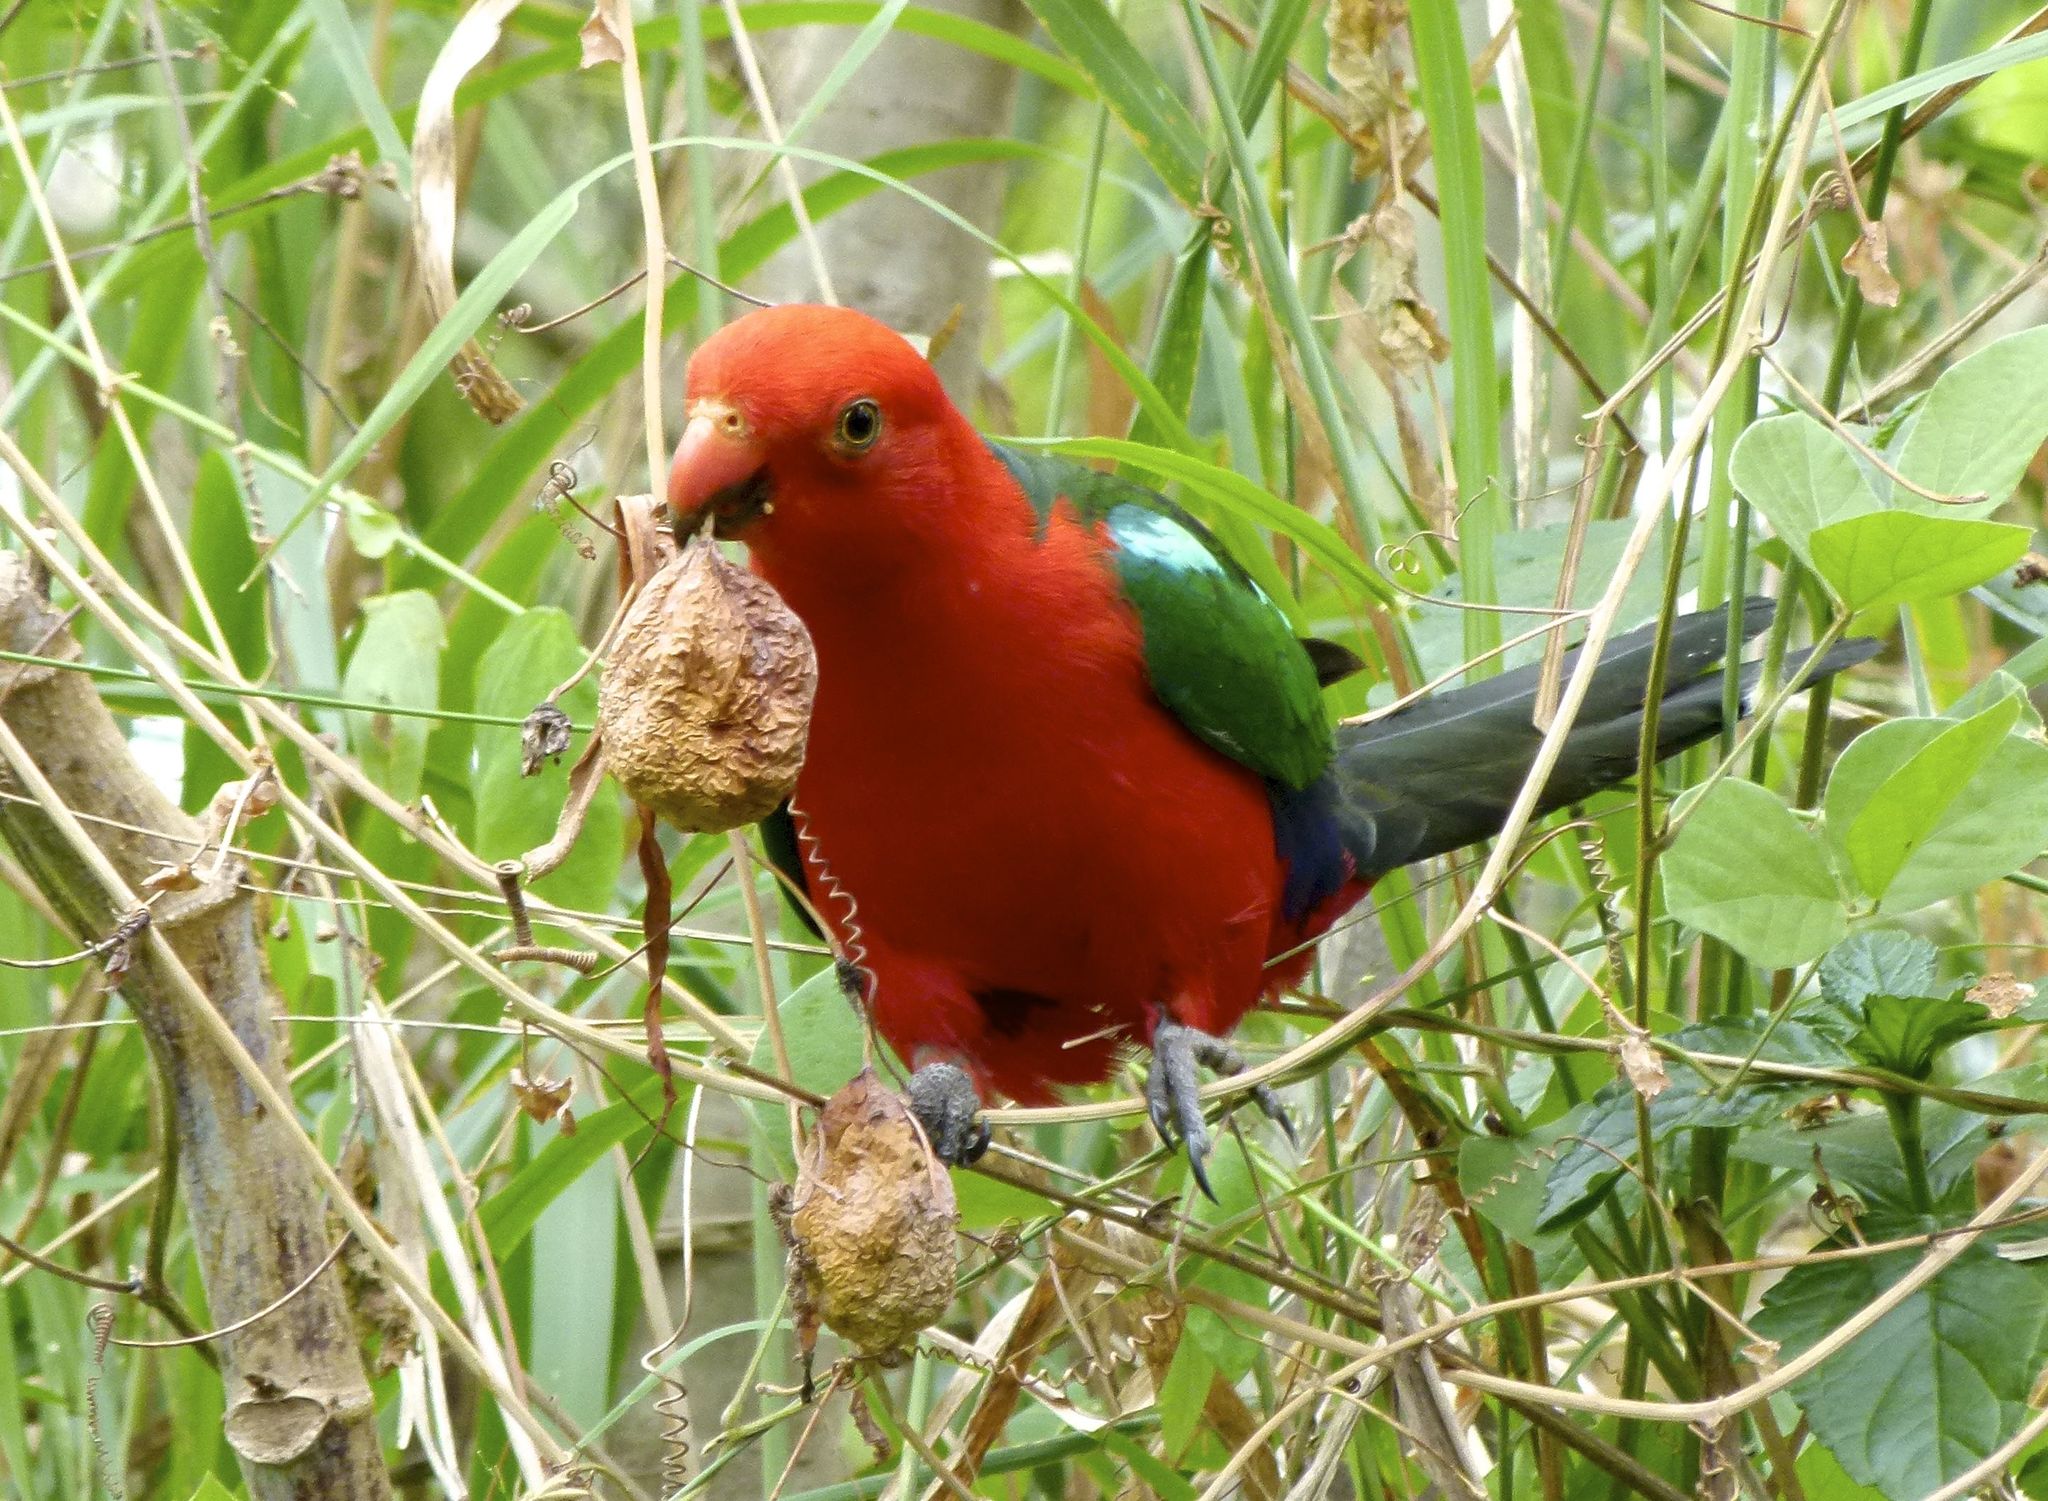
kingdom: Animalia
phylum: Chordata
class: Aves
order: Psittaciformes
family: Psittacidae
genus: Alisterus
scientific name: Alisterus scapularis
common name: Australian king parrot
